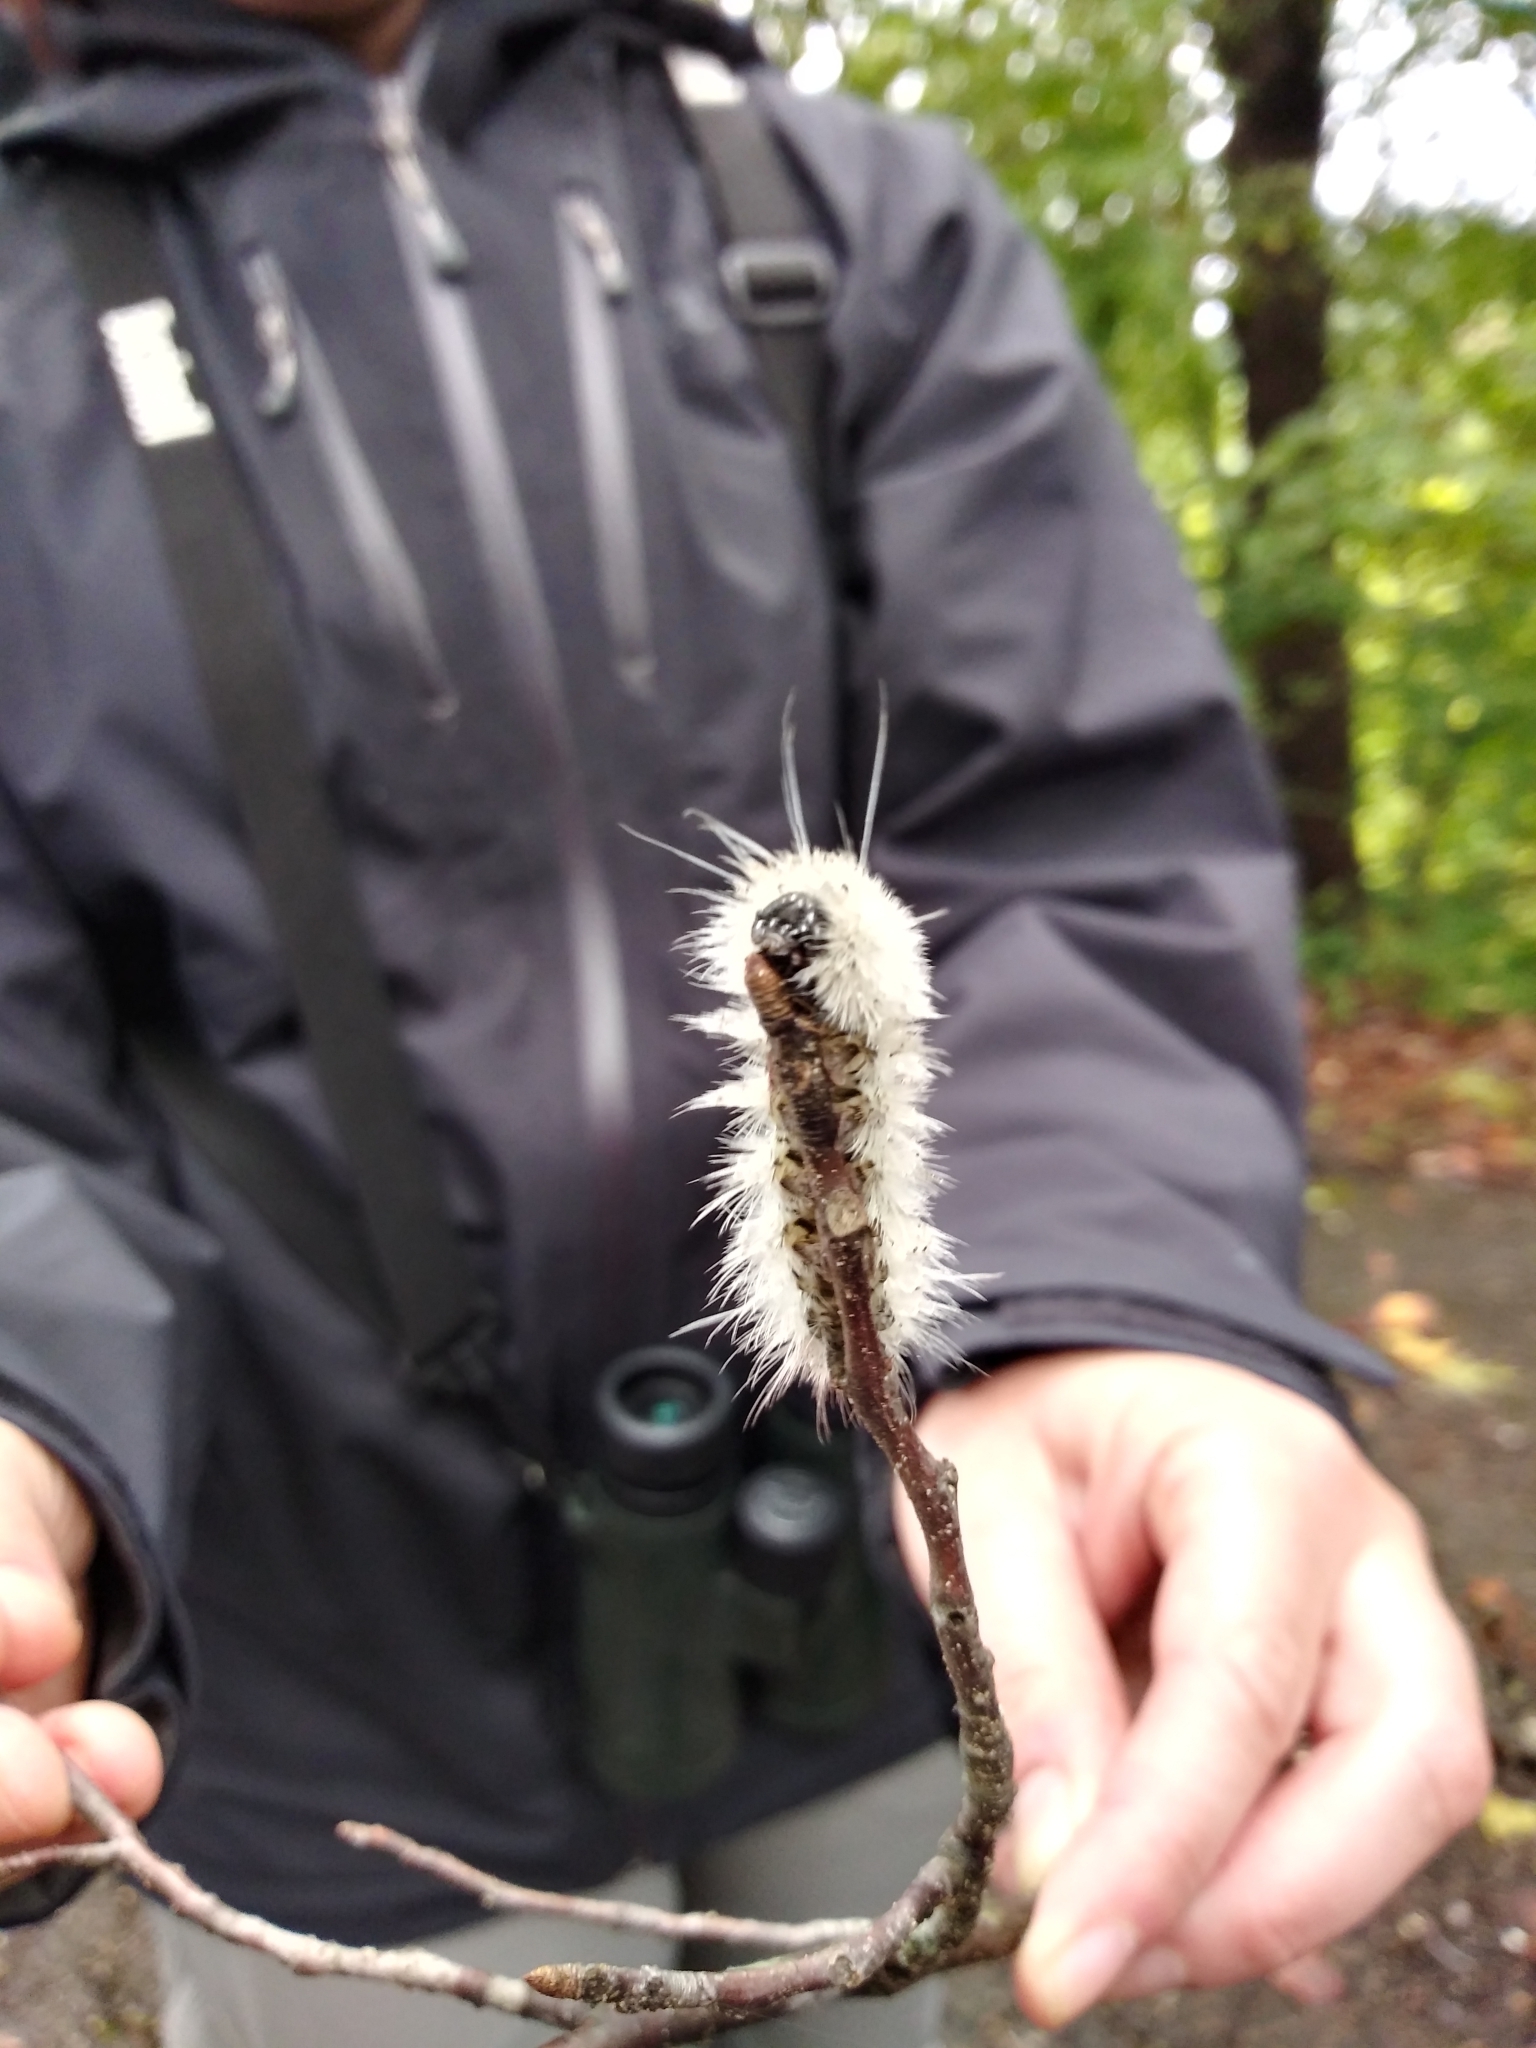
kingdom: Animalia
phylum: Arthropoda
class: Insecta
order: Lepidoptera
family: Erebidae
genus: Lophocampa
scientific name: Lophocampa caryae
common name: Hickory tussock moth
